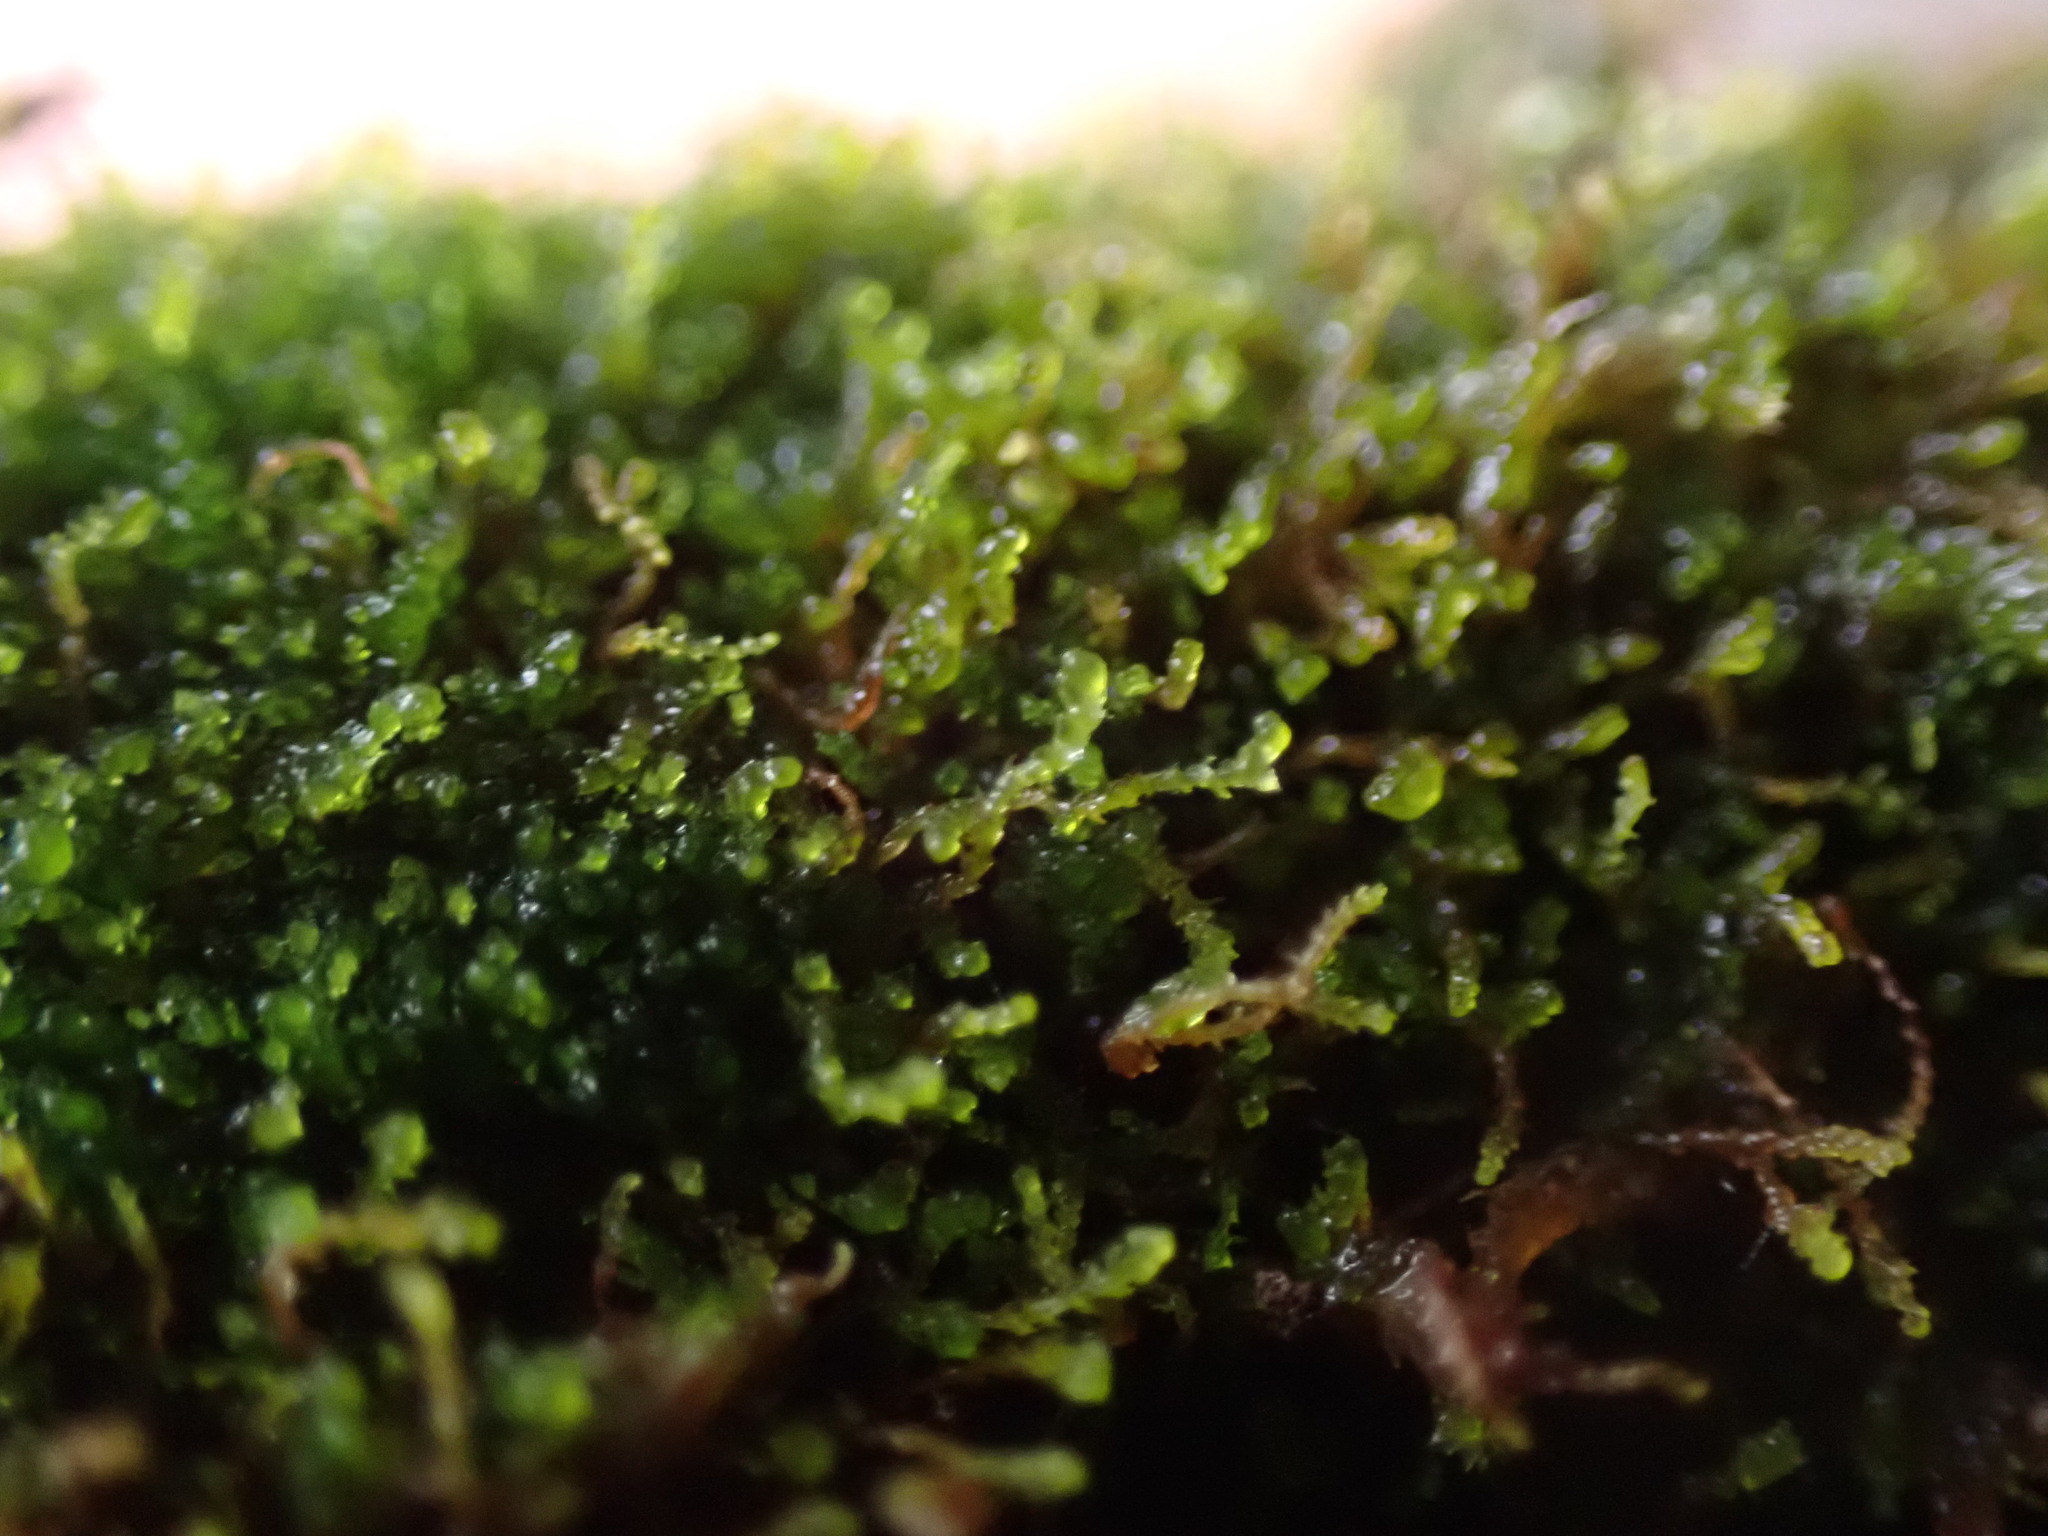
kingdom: Plantae
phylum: Marchantiophyta
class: Jungermanniopsida
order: Jungermanniales
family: Cephaloziellaceae
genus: Cephaloziella
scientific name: Cephaloziella divaricata
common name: Spreading threadwort
